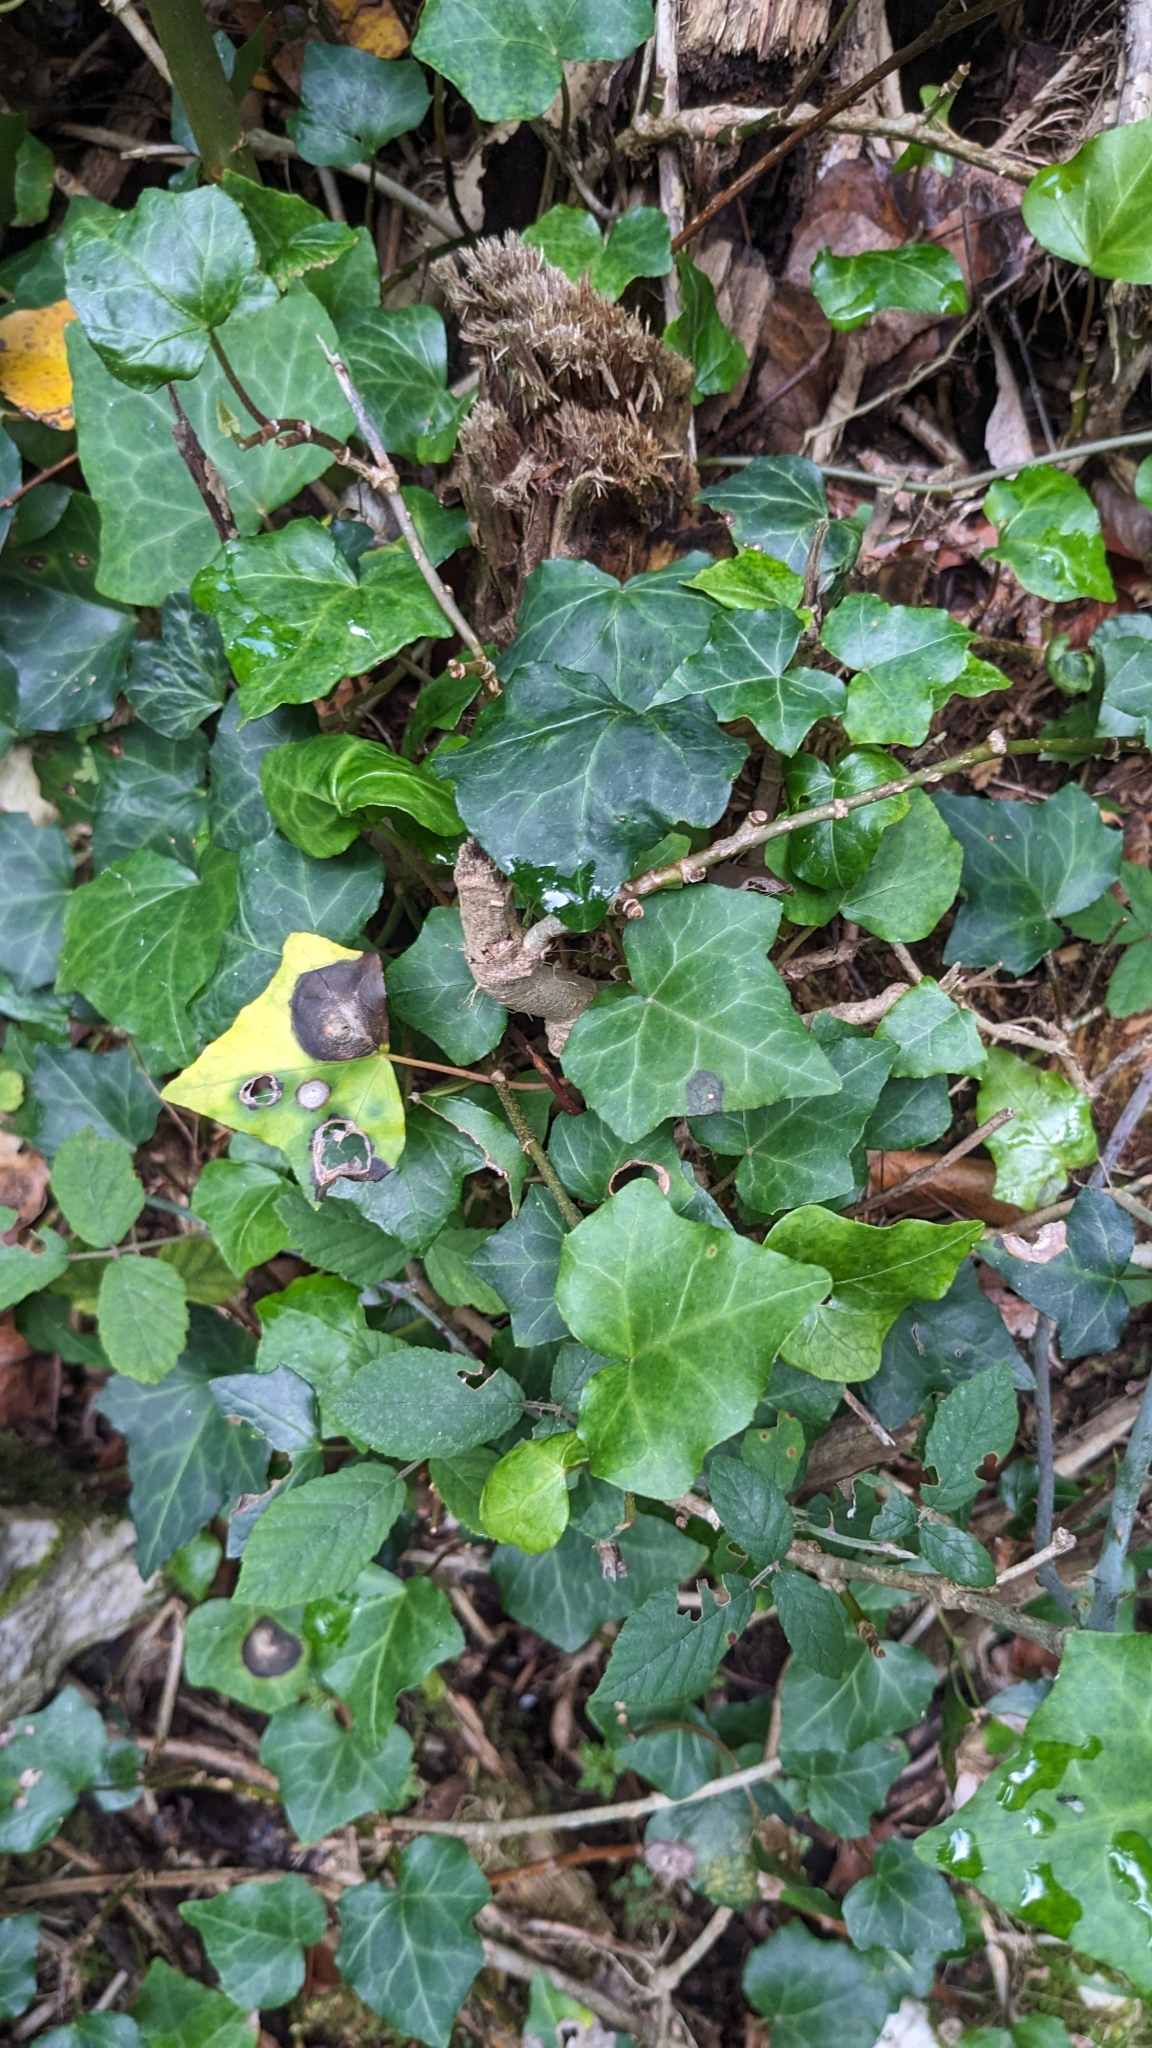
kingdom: Plantae
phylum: Tracheophyta
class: Magnoliopsida
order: Apiales
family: Araliaceae
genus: Hedera
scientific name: Hedera helix
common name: Ivy
